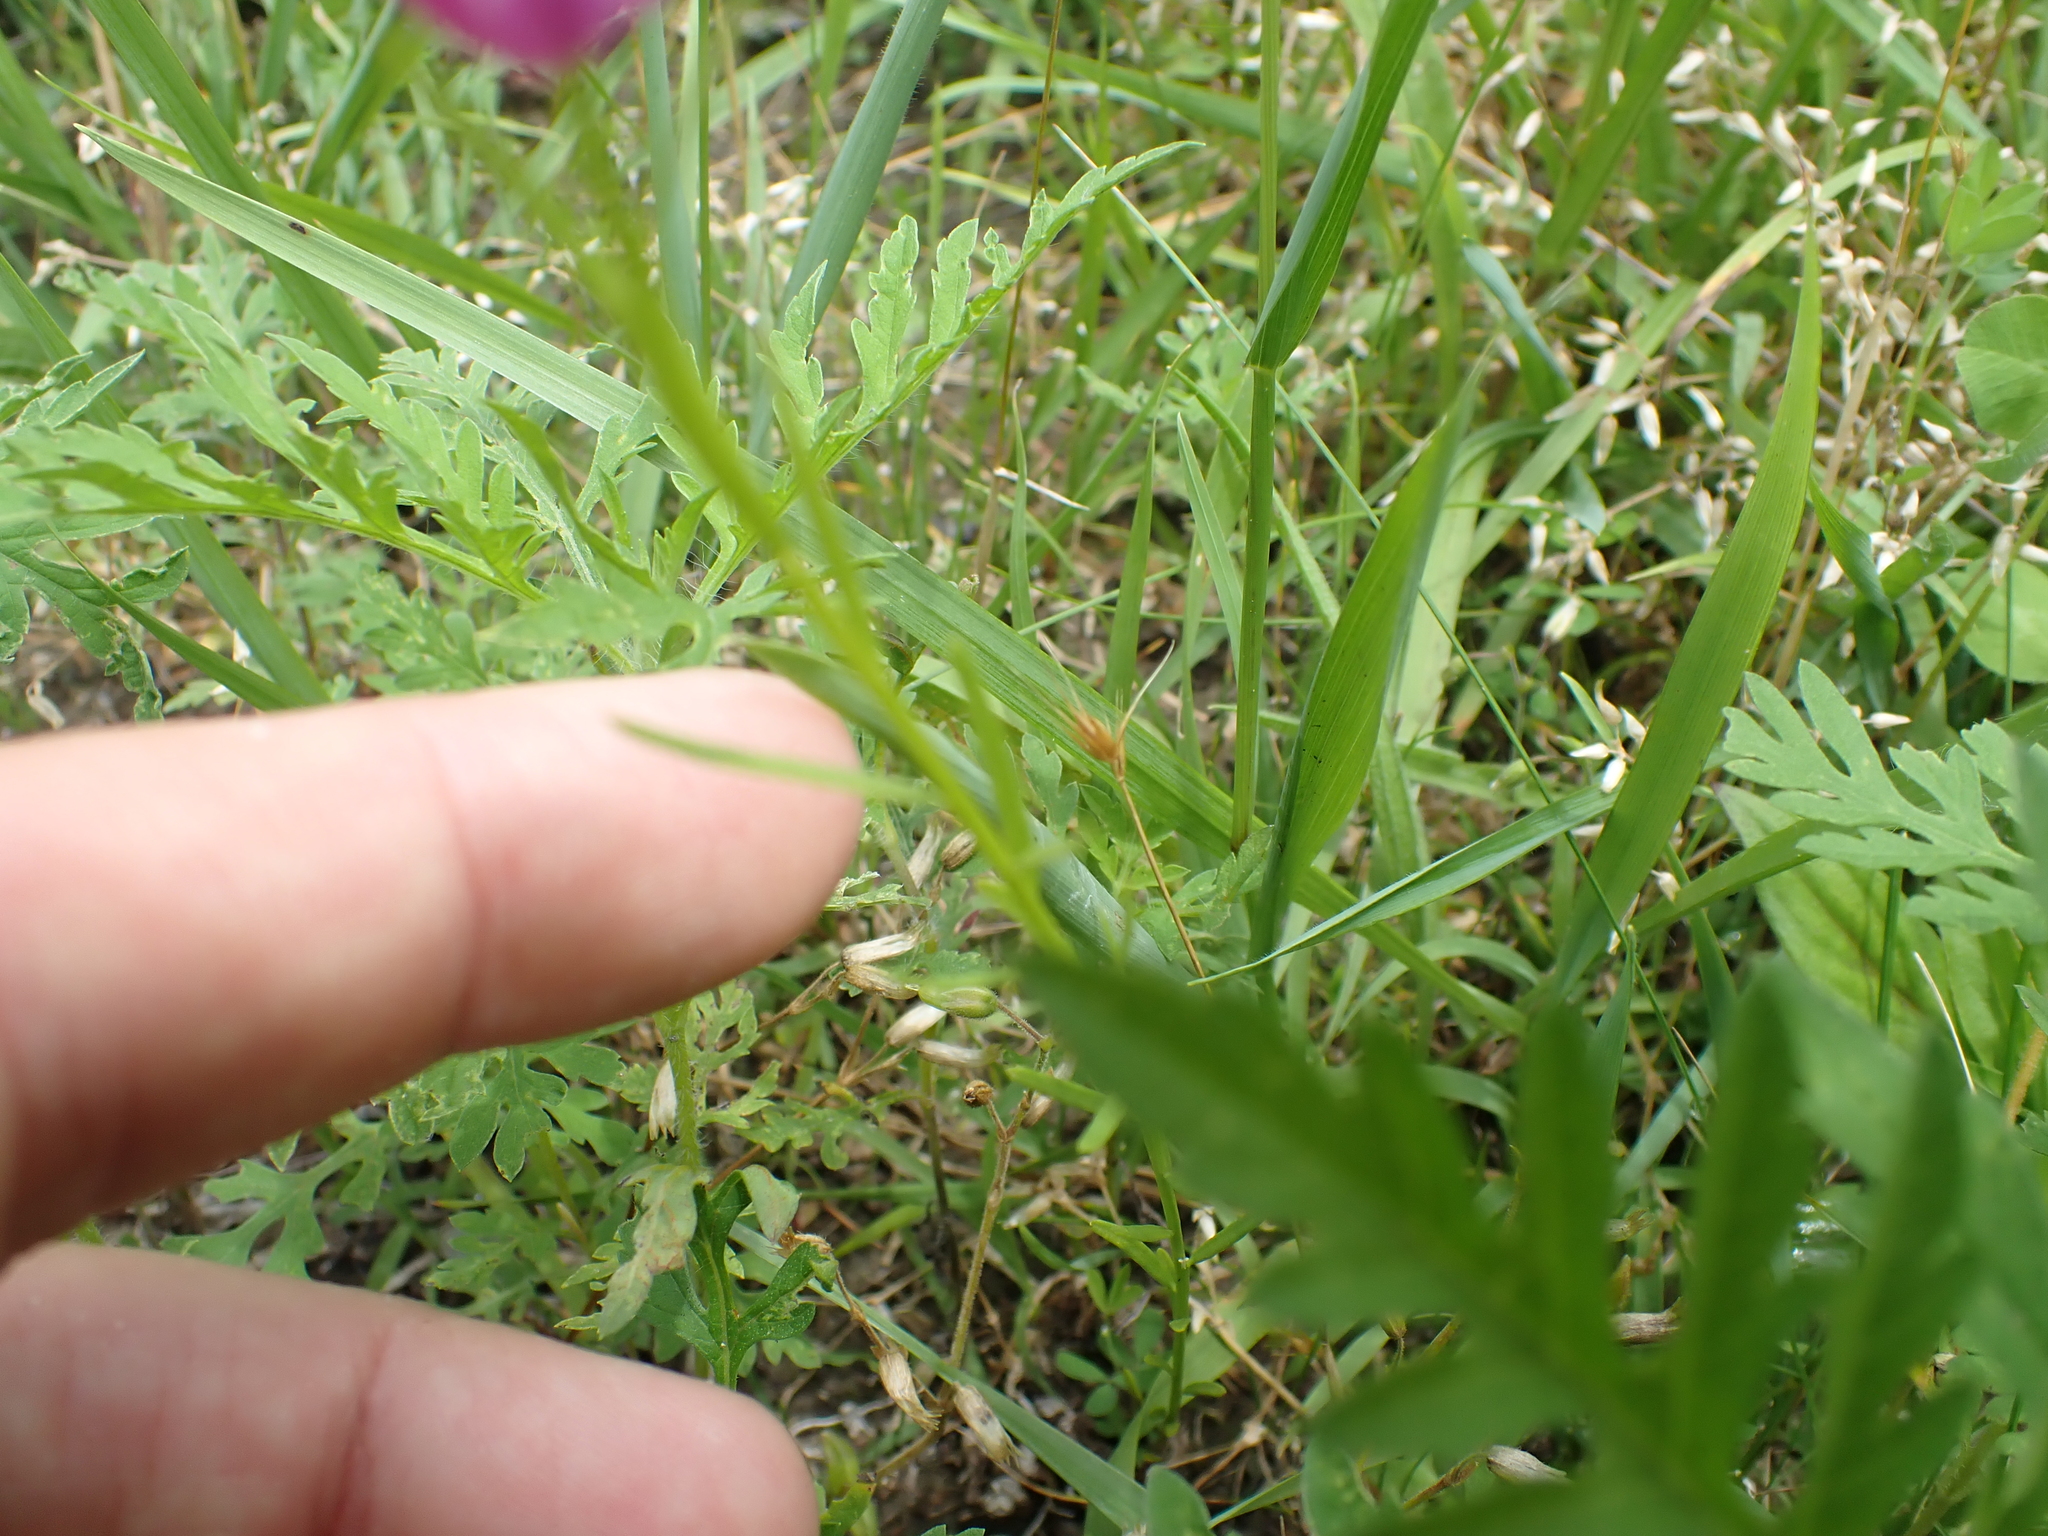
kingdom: Plantae
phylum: Tracheophyta
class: Magnoliopsida
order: Fabales
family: Polygalaceae
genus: Polygala
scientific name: Polygala sanguinea
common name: Blood milkwort
